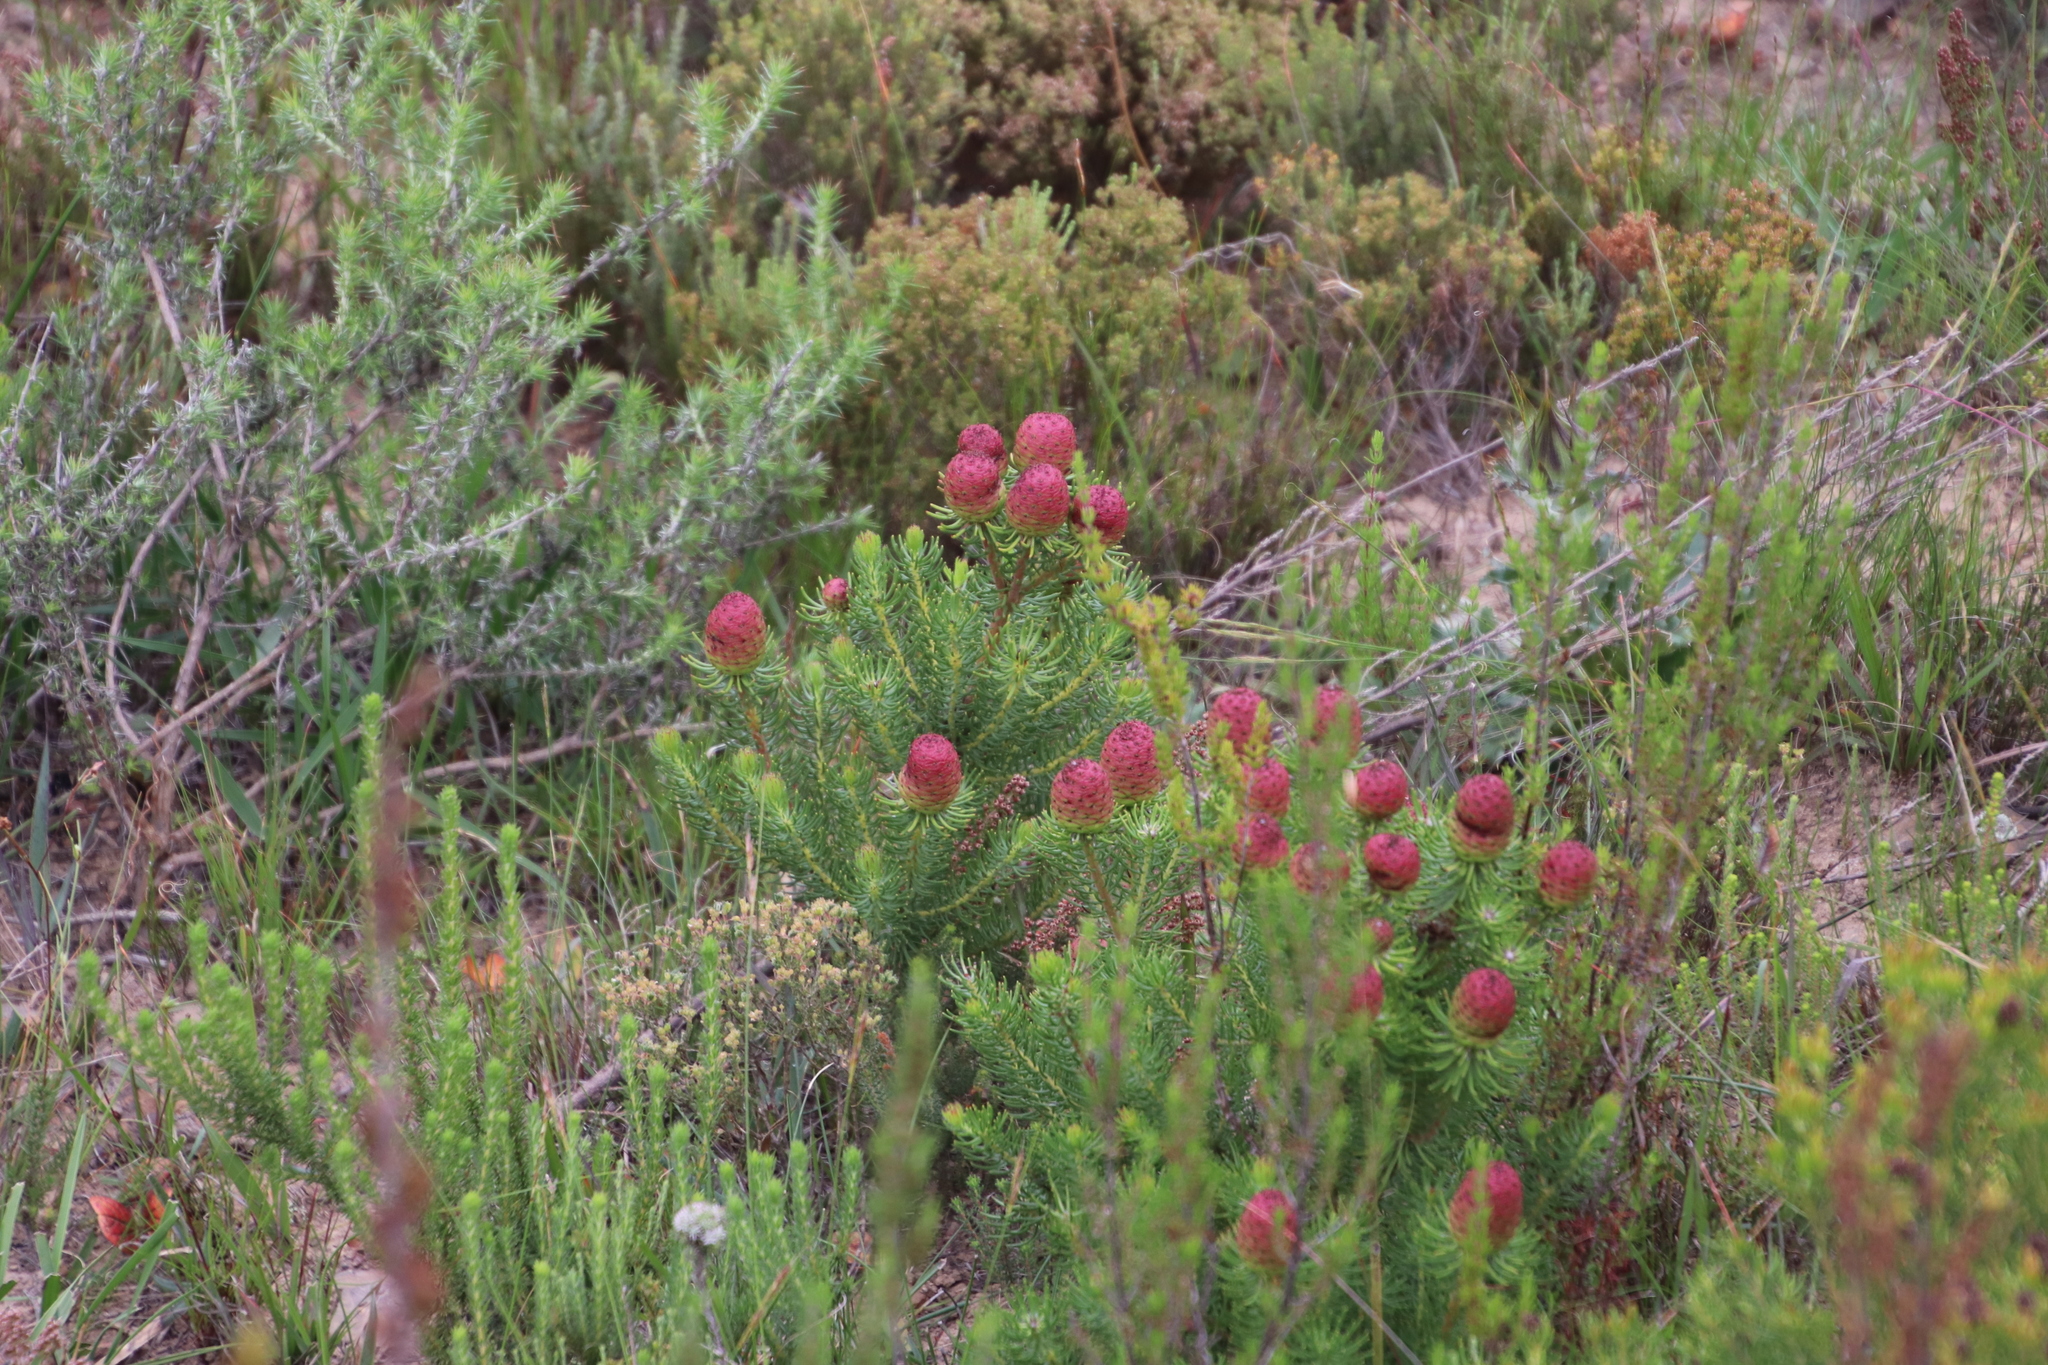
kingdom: Plantae
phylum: Tracheophyta
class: Magnoliopsida
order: Proteales
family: Proteaceae
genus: Leucadendron
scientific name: Leucadendron teretifolium
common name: Needle-leaf conebush
